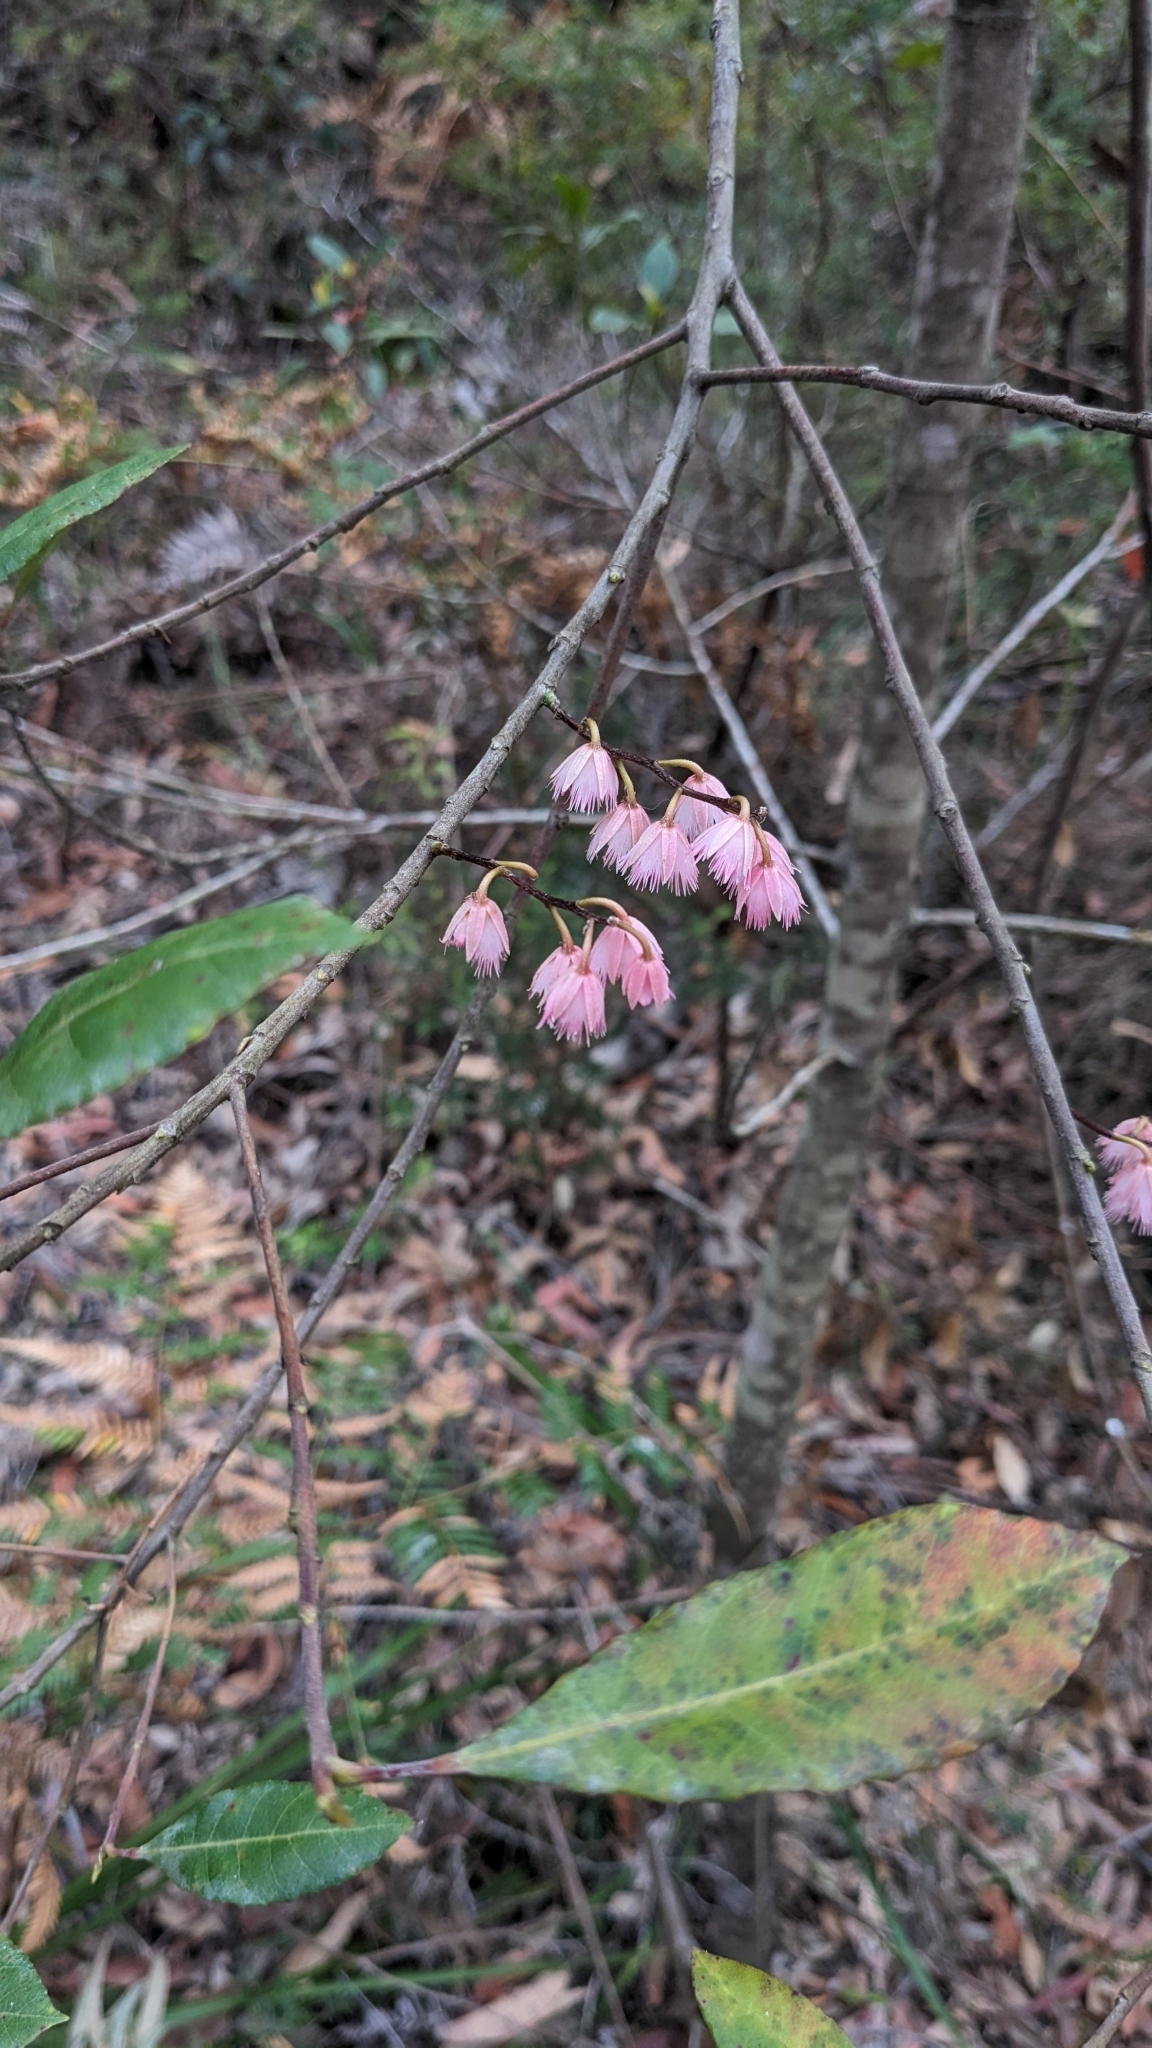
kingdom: Plantae
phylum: Tracheophyta
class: Magnoliopsida
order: Oxalidales
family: Elaeocarpaceae
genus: Elaeocarpus
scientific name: Elaeocarpus reticulatus
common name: Ash quandong
